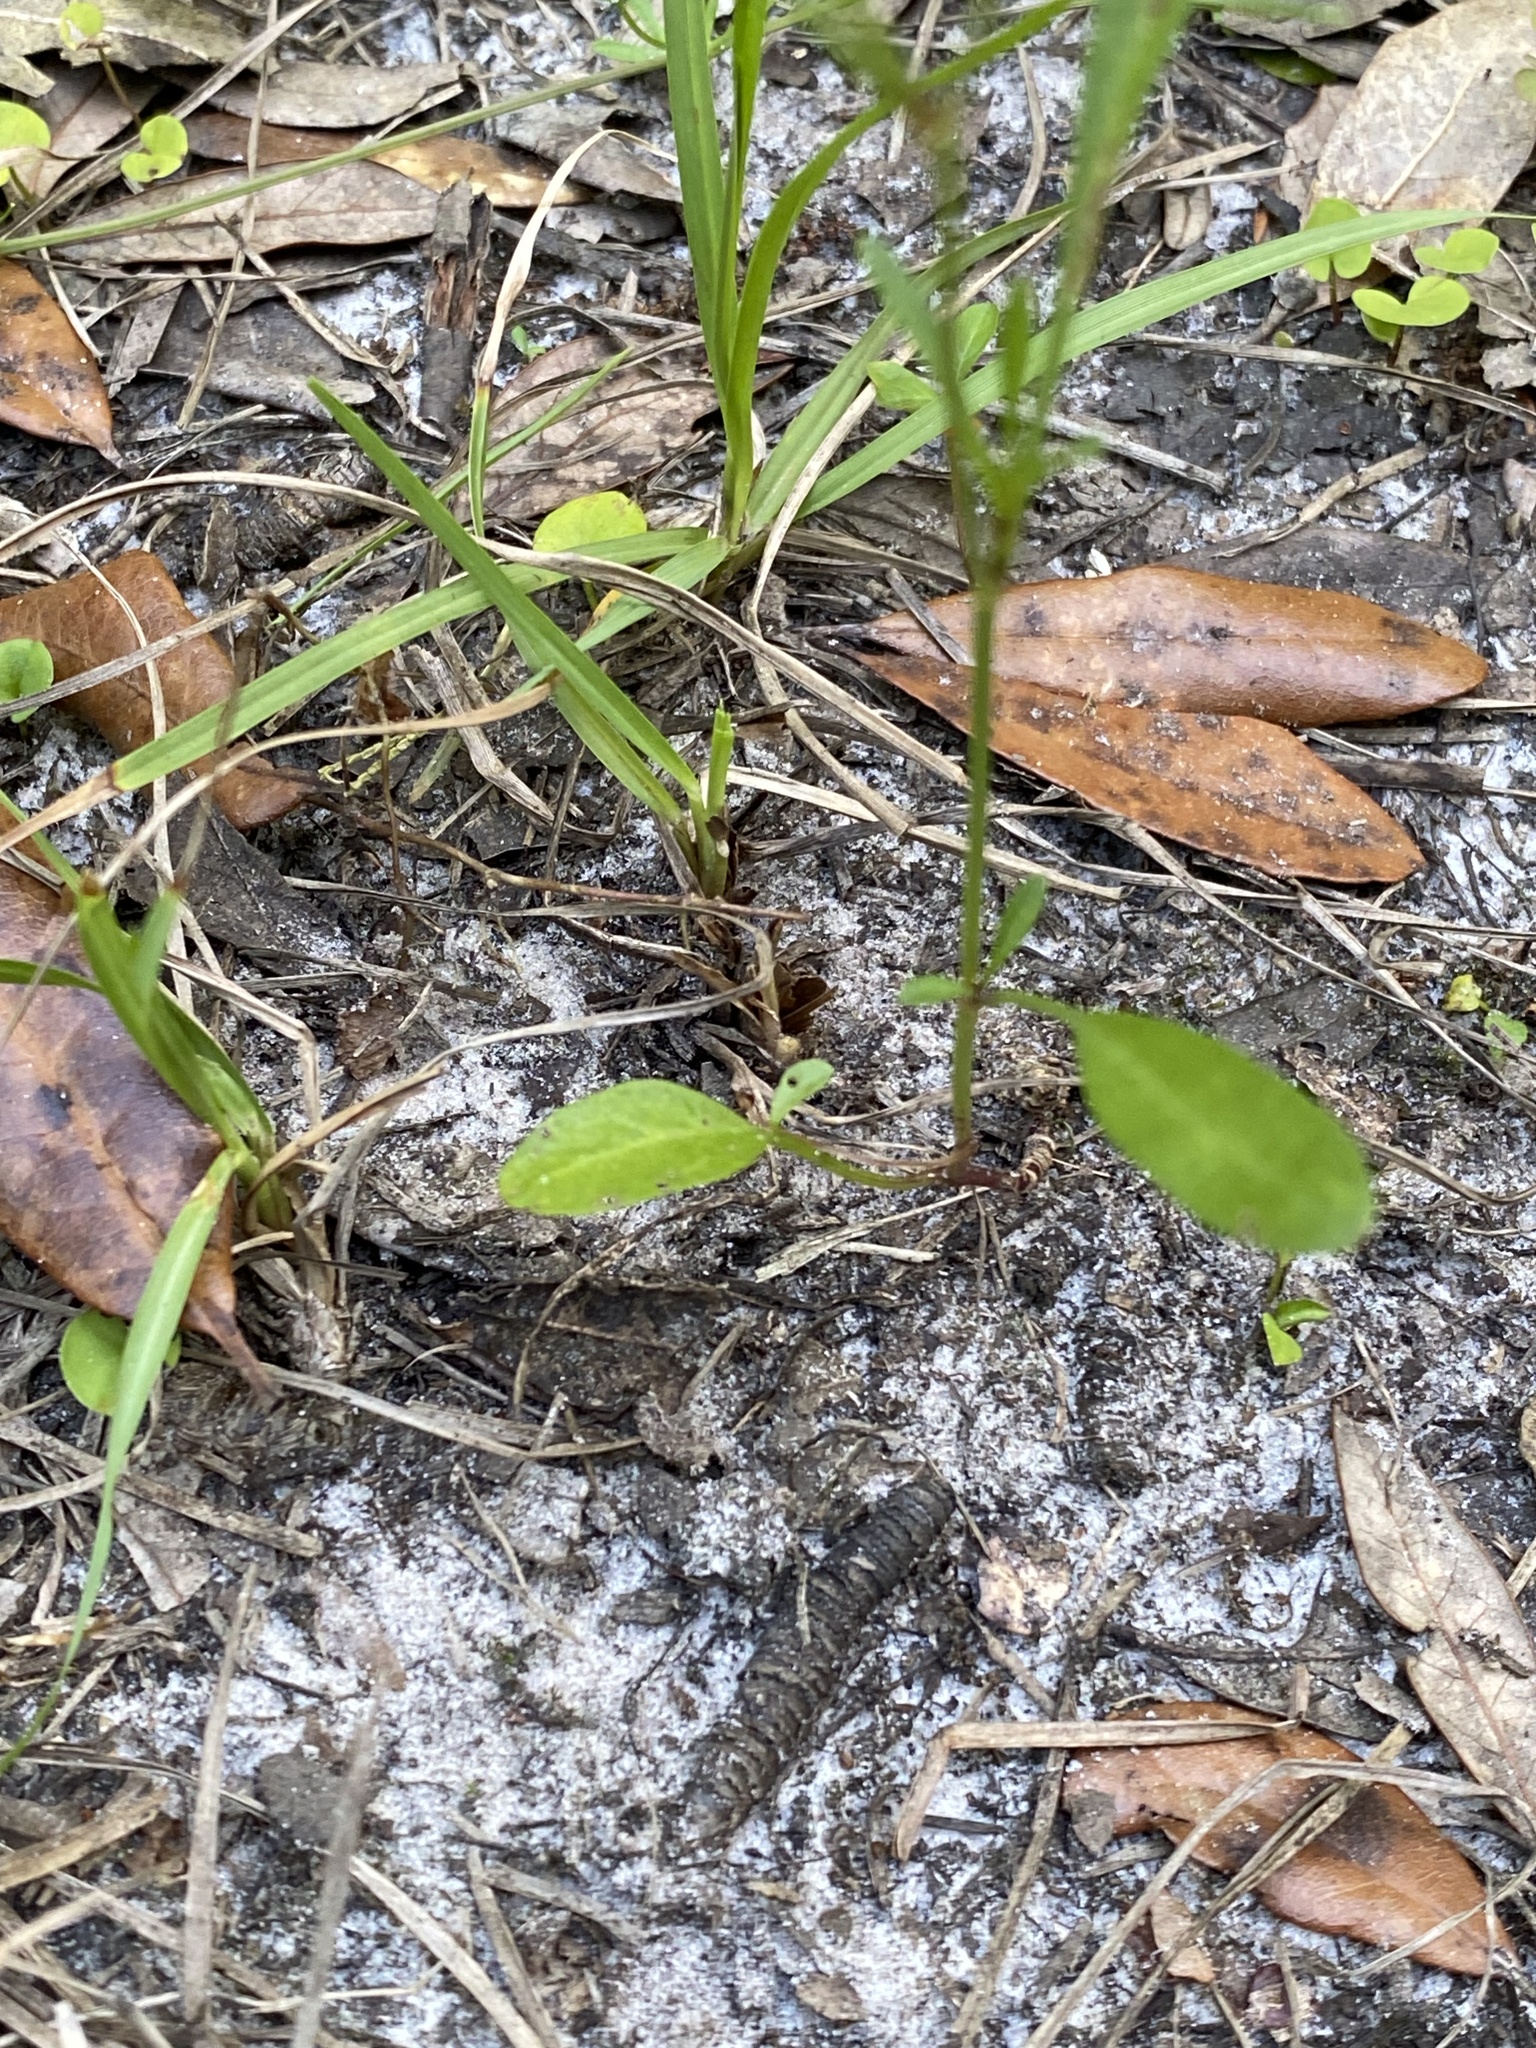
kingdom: Plantae
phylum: Tracheophyta
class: Magnoliopsida
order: Asterales
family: Asteraceae
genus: Coreopsis
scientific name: Coreopsis leavenworthii
